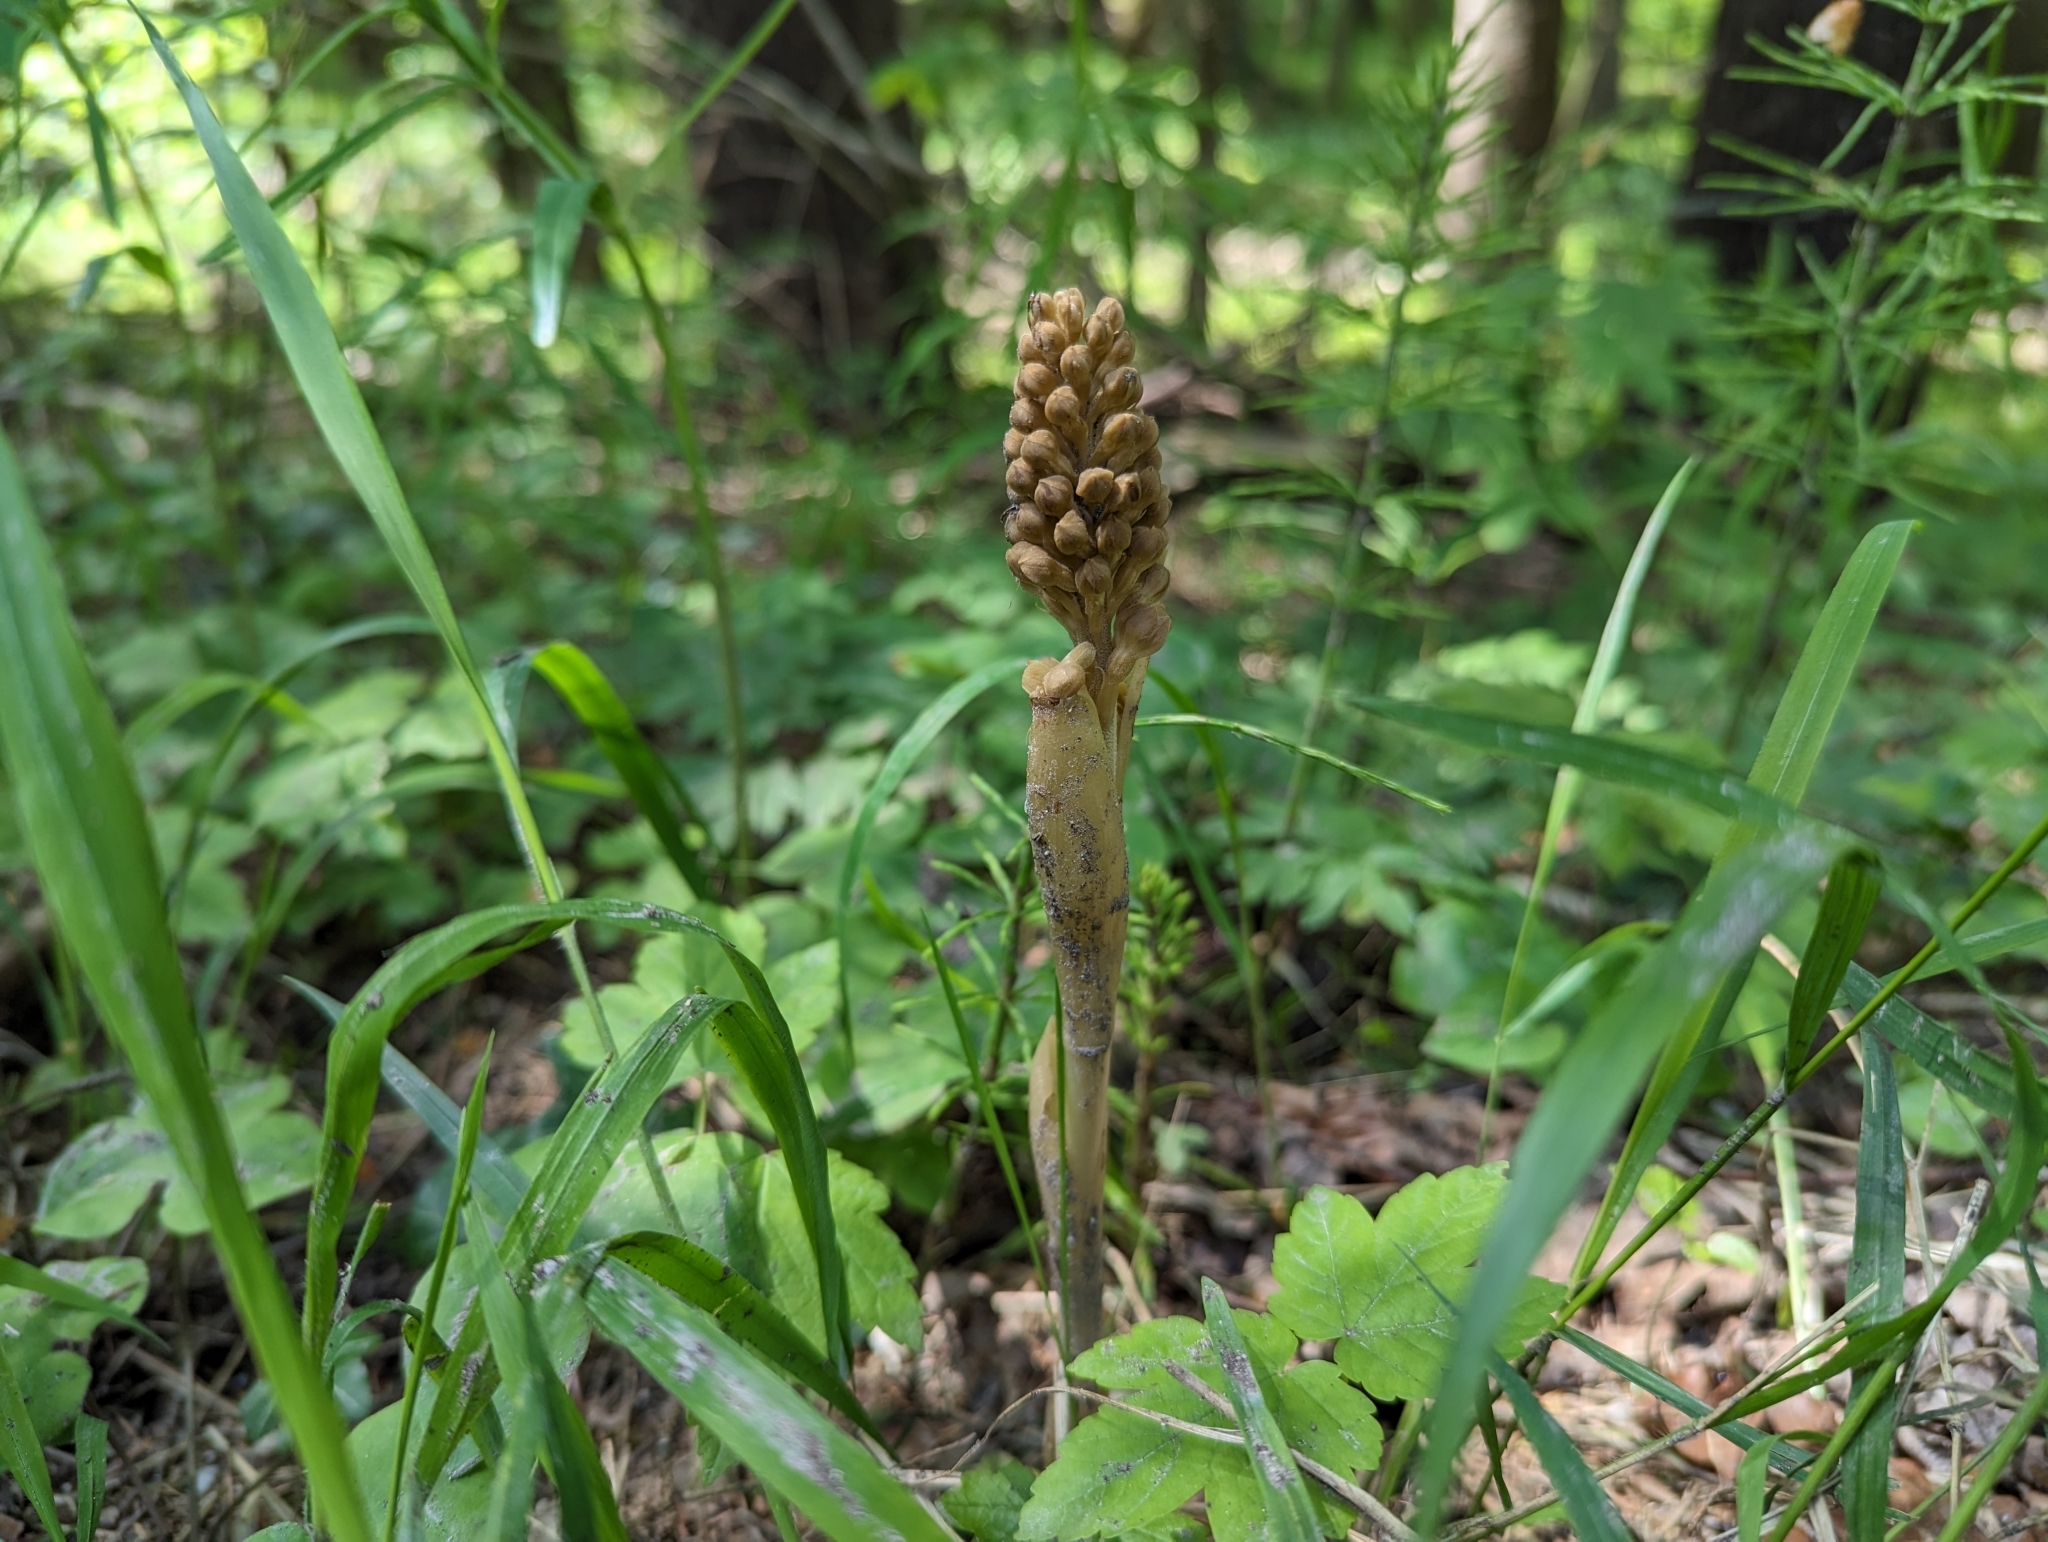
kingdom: Plantae
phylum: Tracheophyta
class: Liliopsida
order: Asparagales
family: Orchidaceae
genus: Neottia
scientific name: Neottia nidus-avis
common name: Bird's-nest orchid
